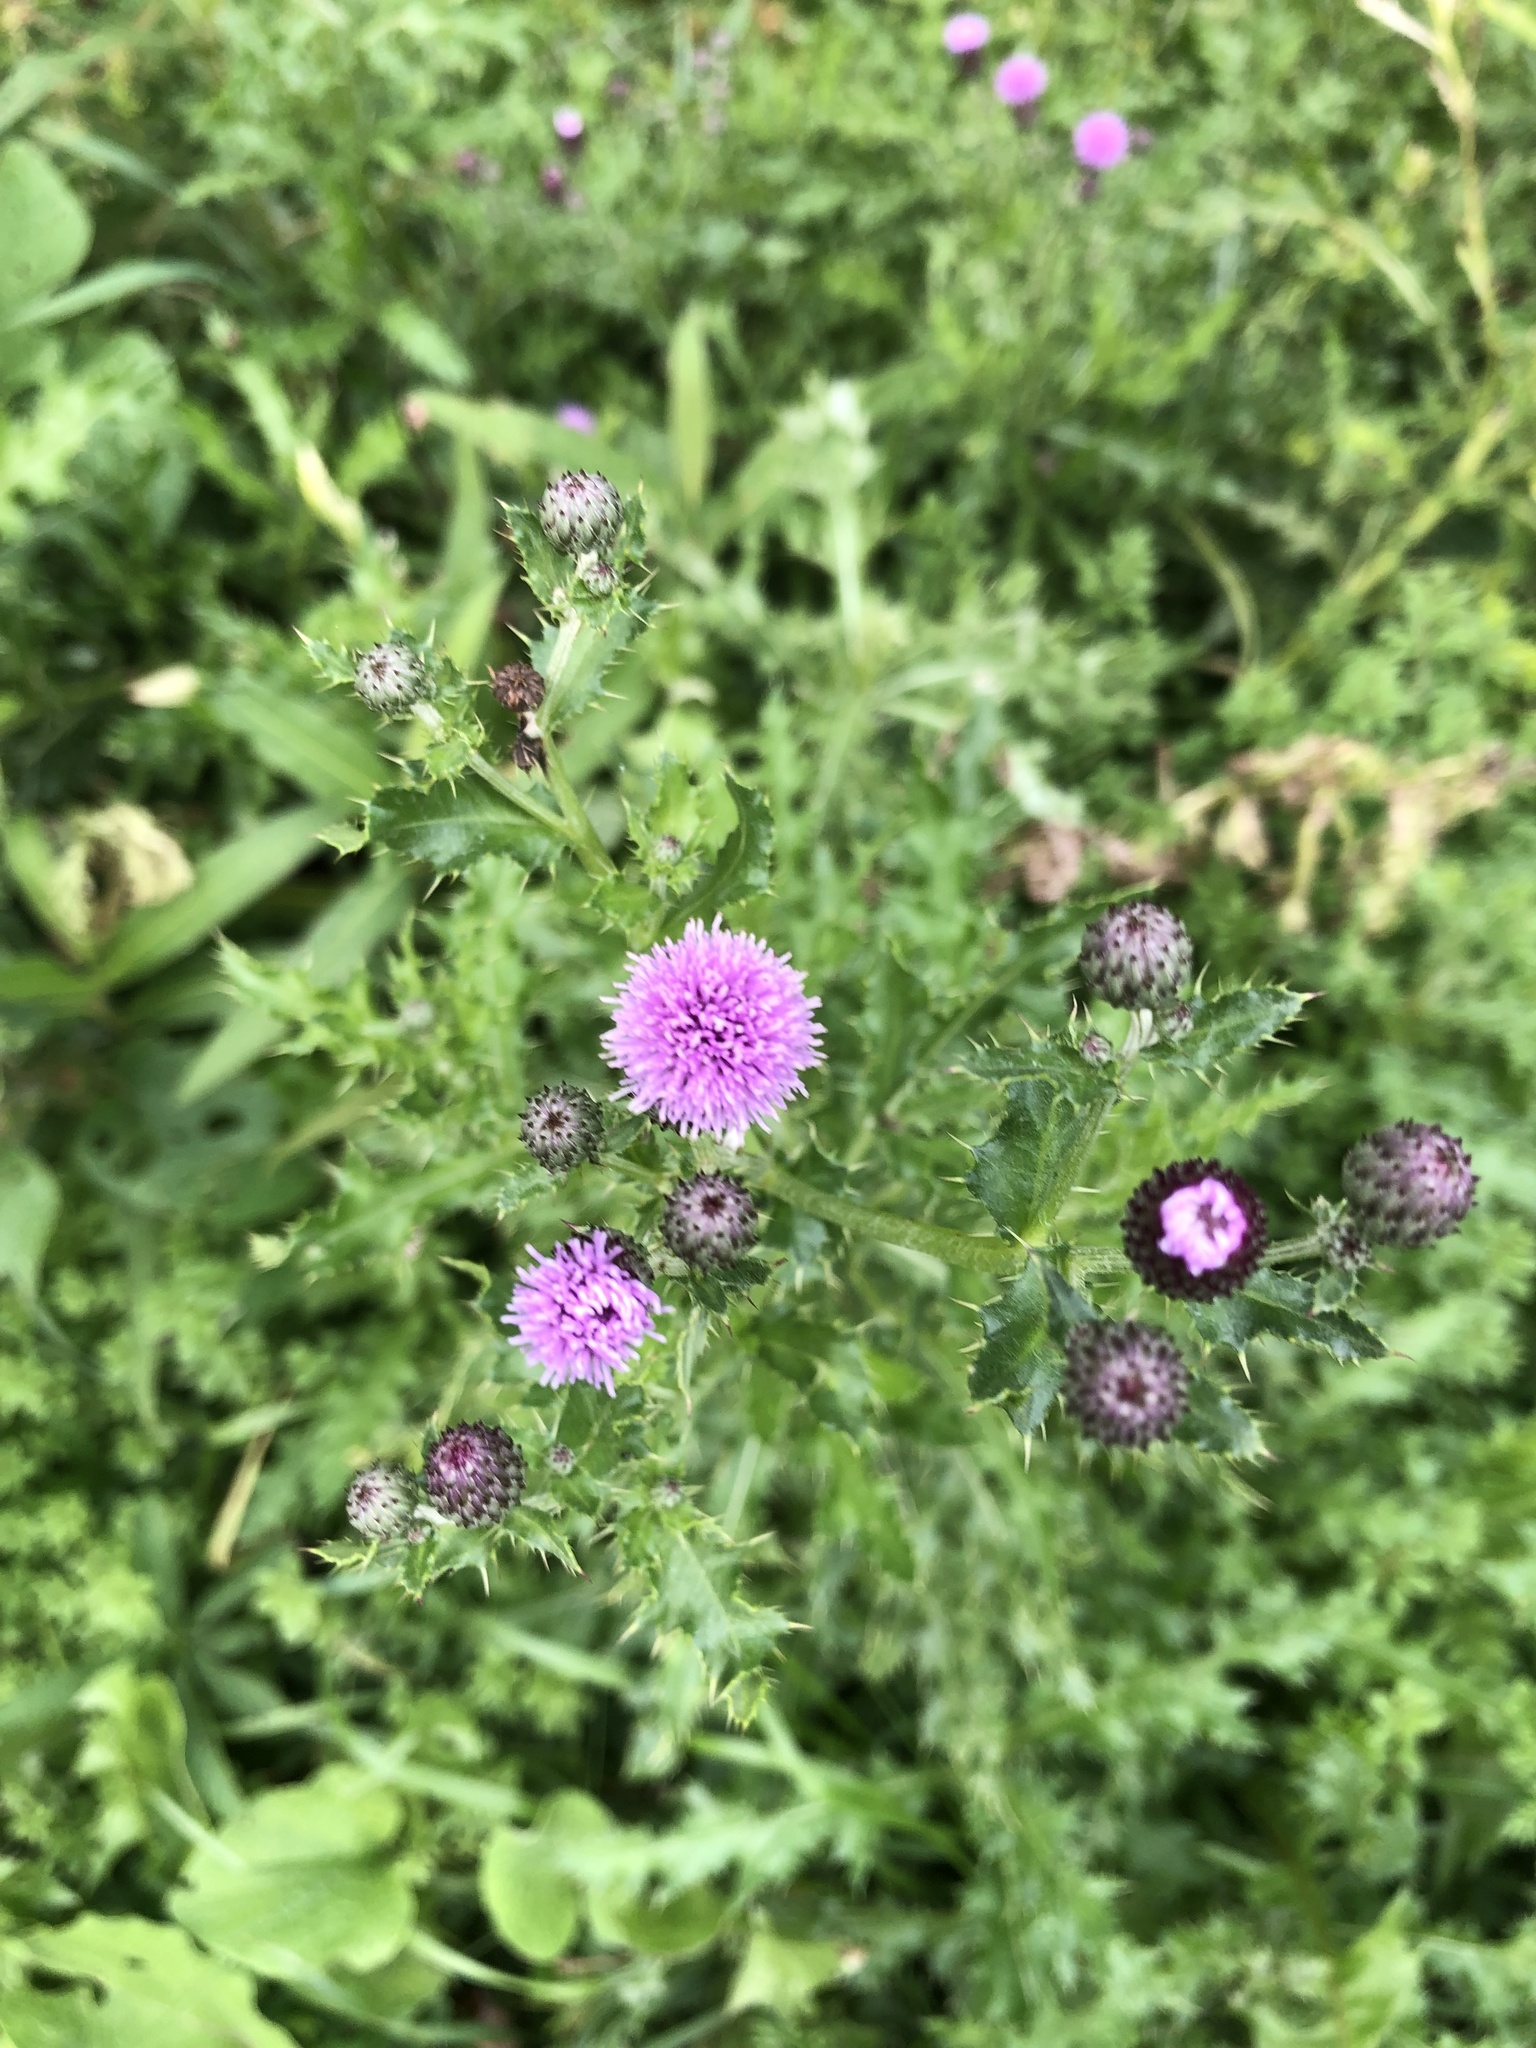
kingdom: Plantae
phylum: Tracheophyta
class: Magnoliopsida
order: Asterales
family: Asteraceae
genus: Cirsium
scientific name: Cirsium arvense
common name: Creeping thistle
